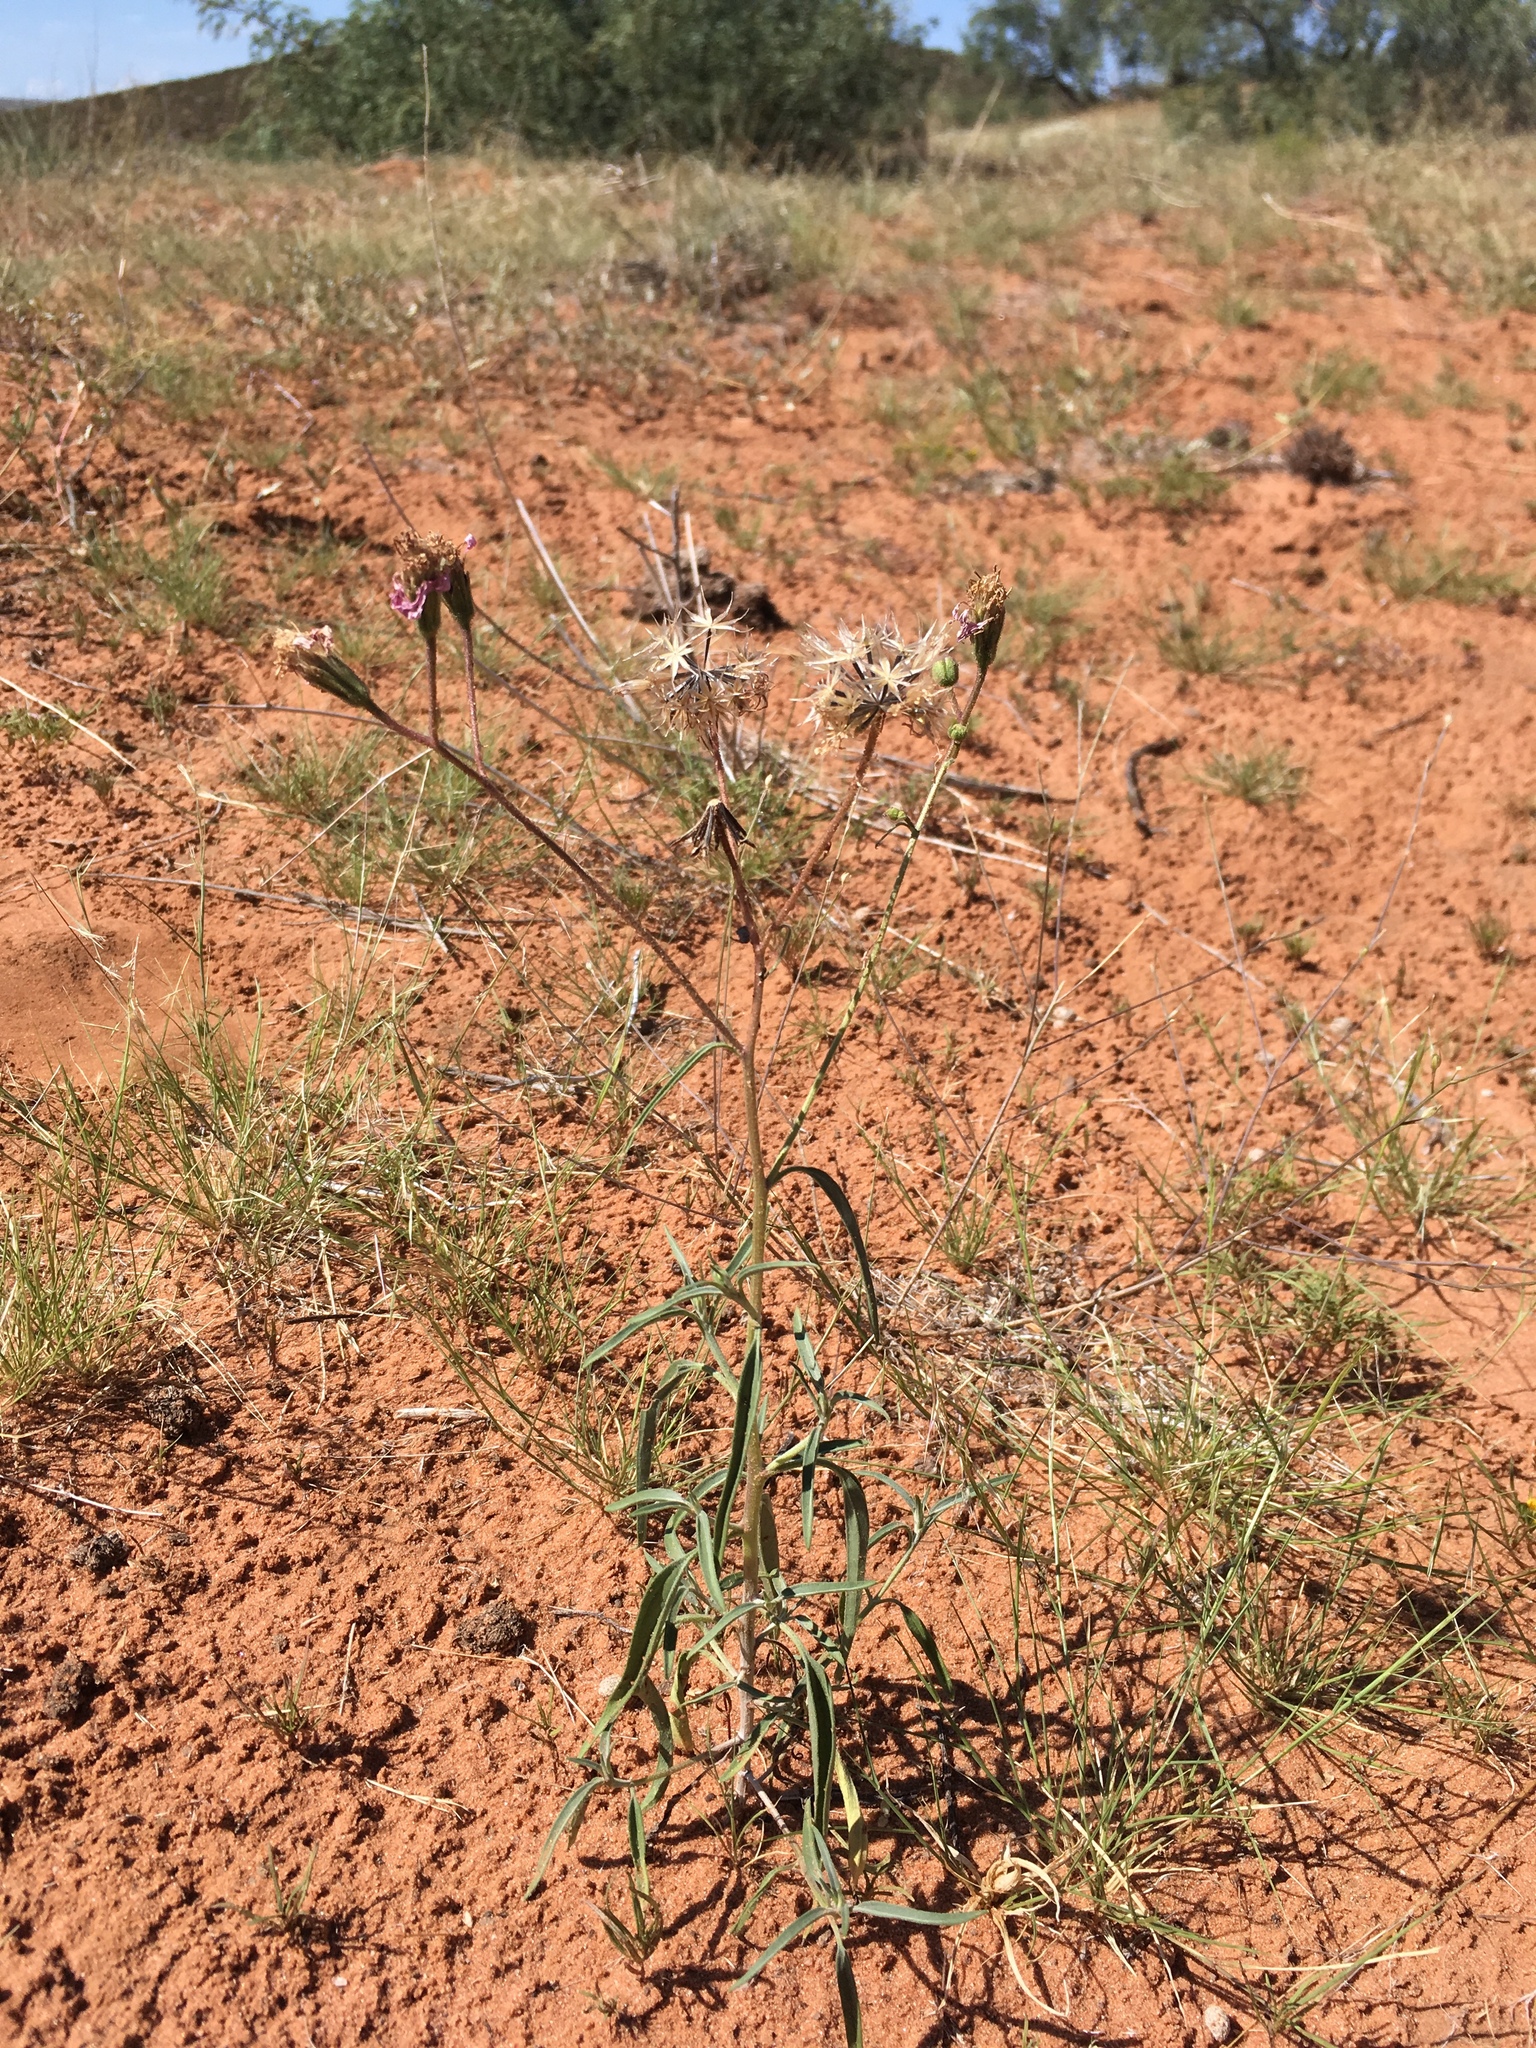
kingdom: Plantae
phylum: Tracheophyta
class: Magnoliopsida
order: Asterales
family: Asteraceae
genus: Palafoxia
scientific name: Palafoxia sphacelata
